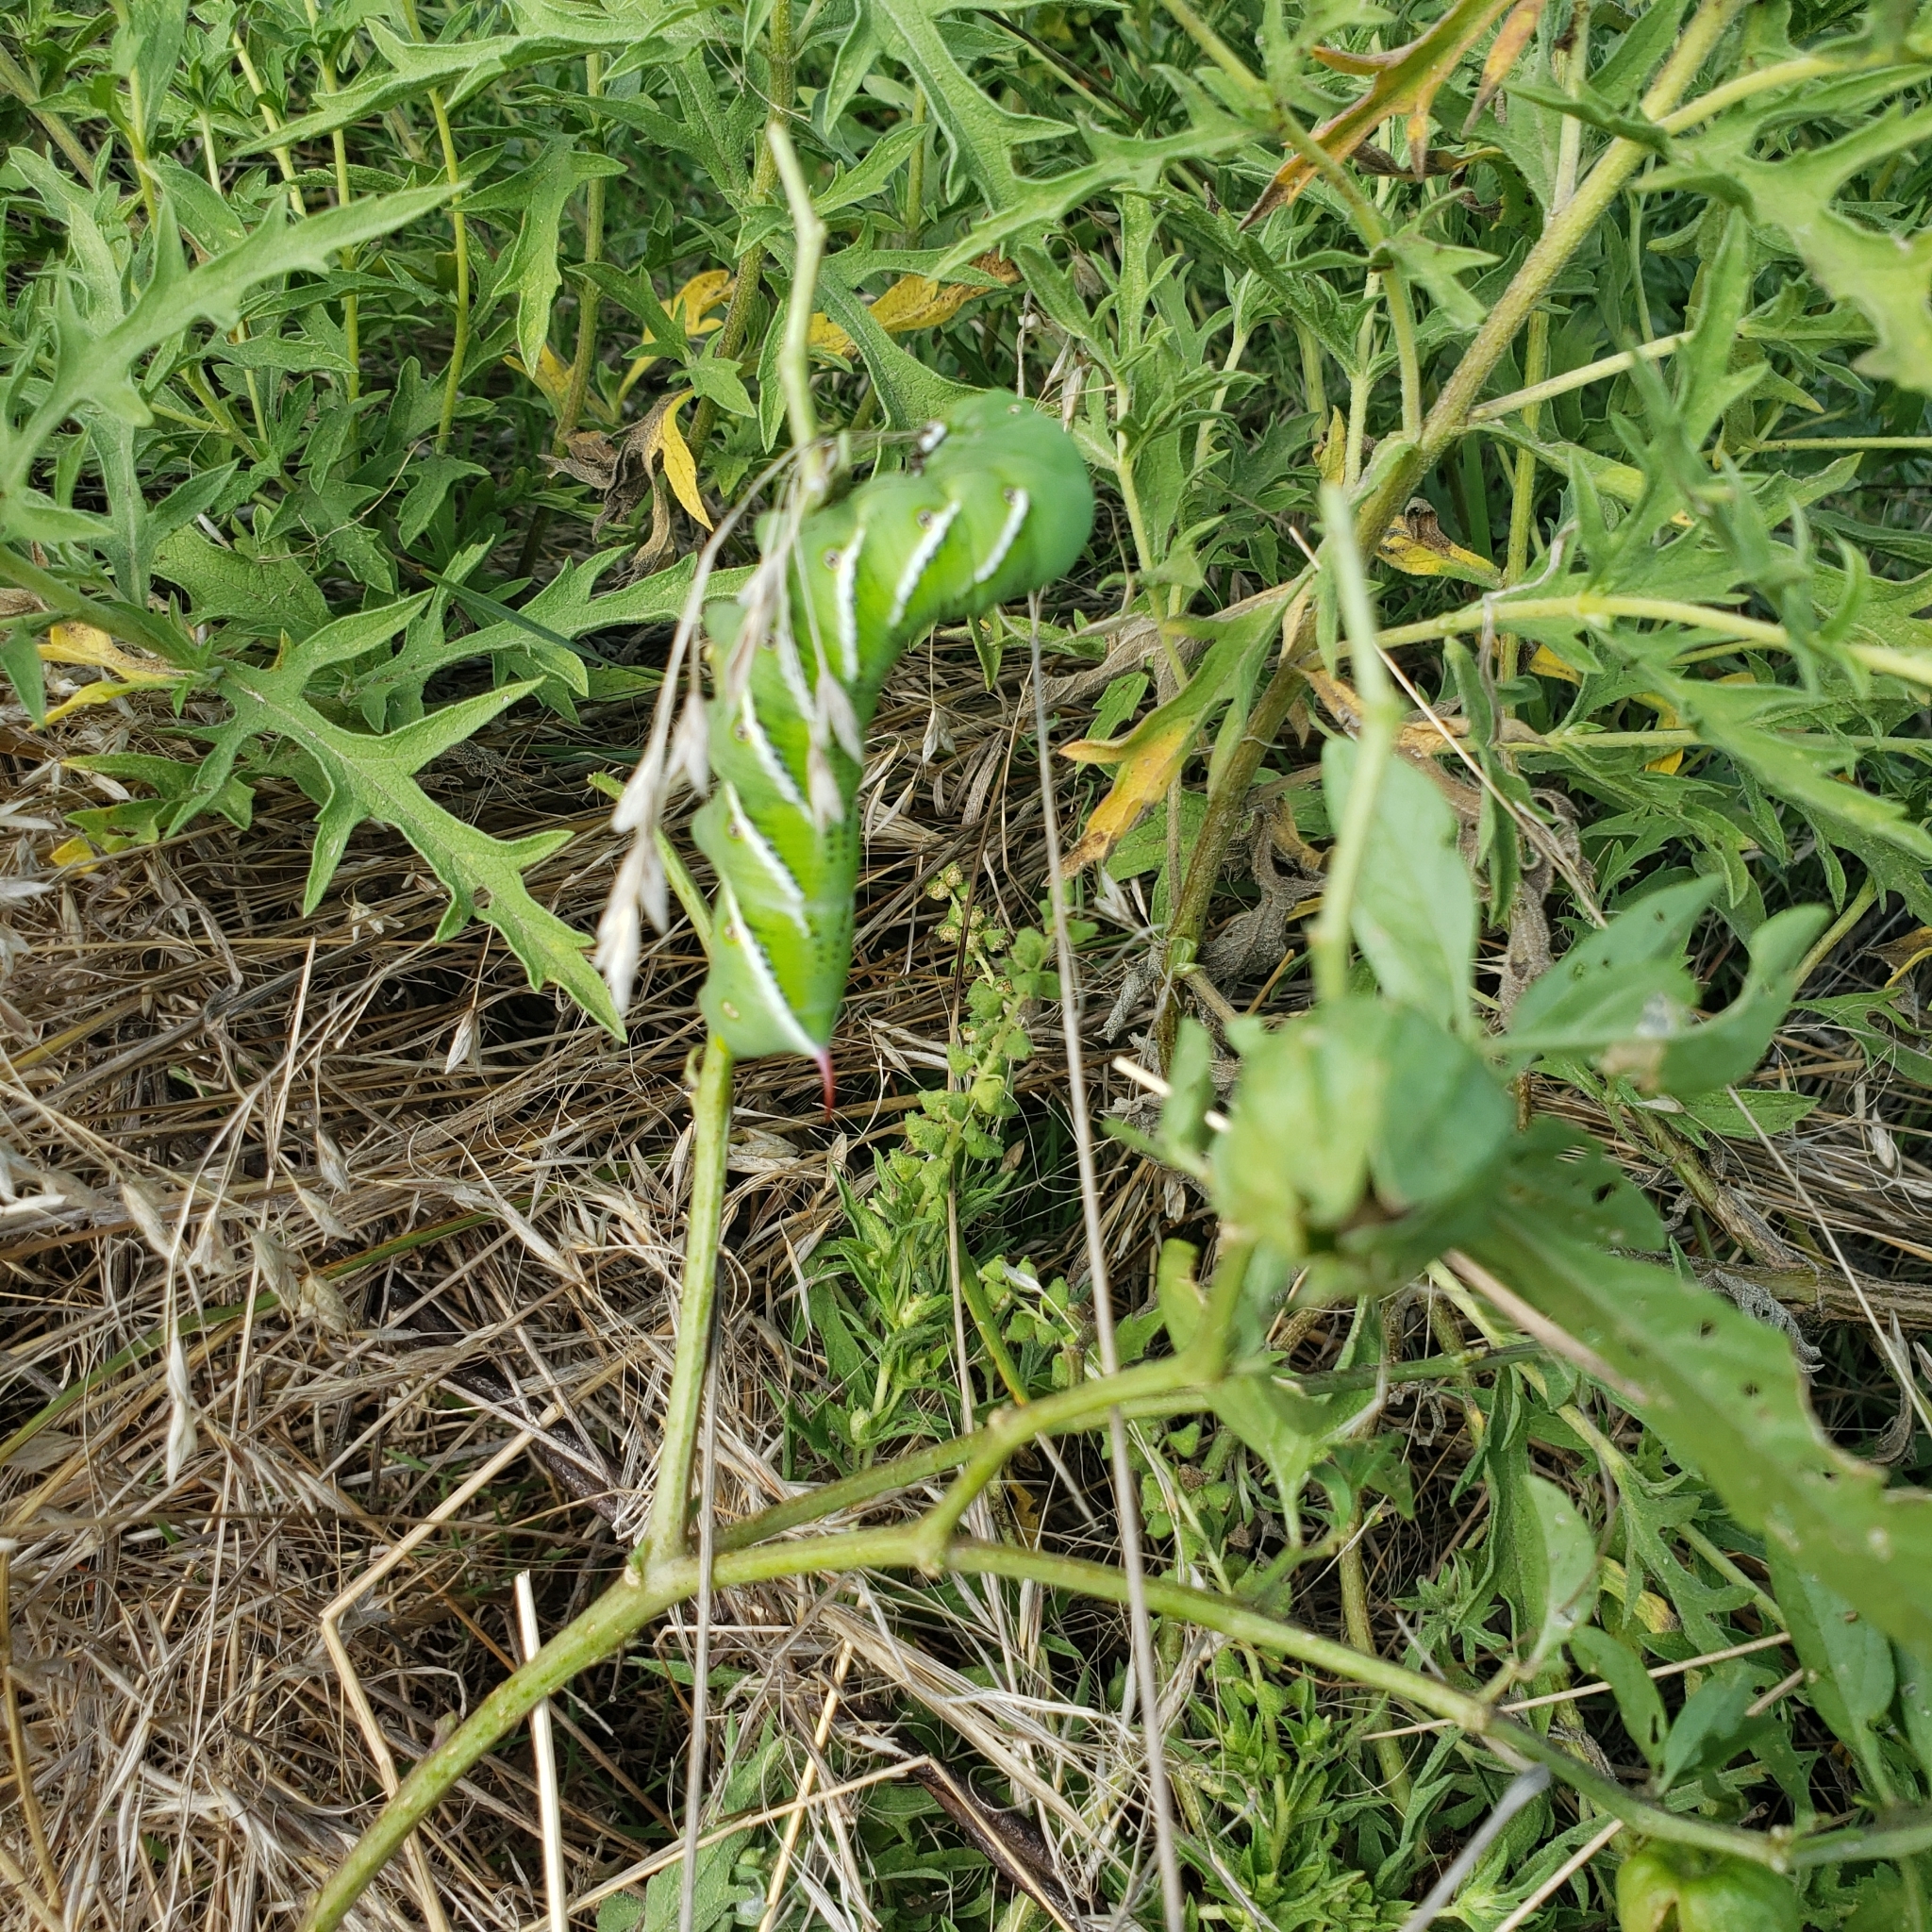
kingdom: Animalia
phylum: Arthropoda
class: Insecta
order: Lepidoptera
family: Sphingidae
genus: Manduca
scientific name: Manduca sexta
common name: Carolina sphinx
